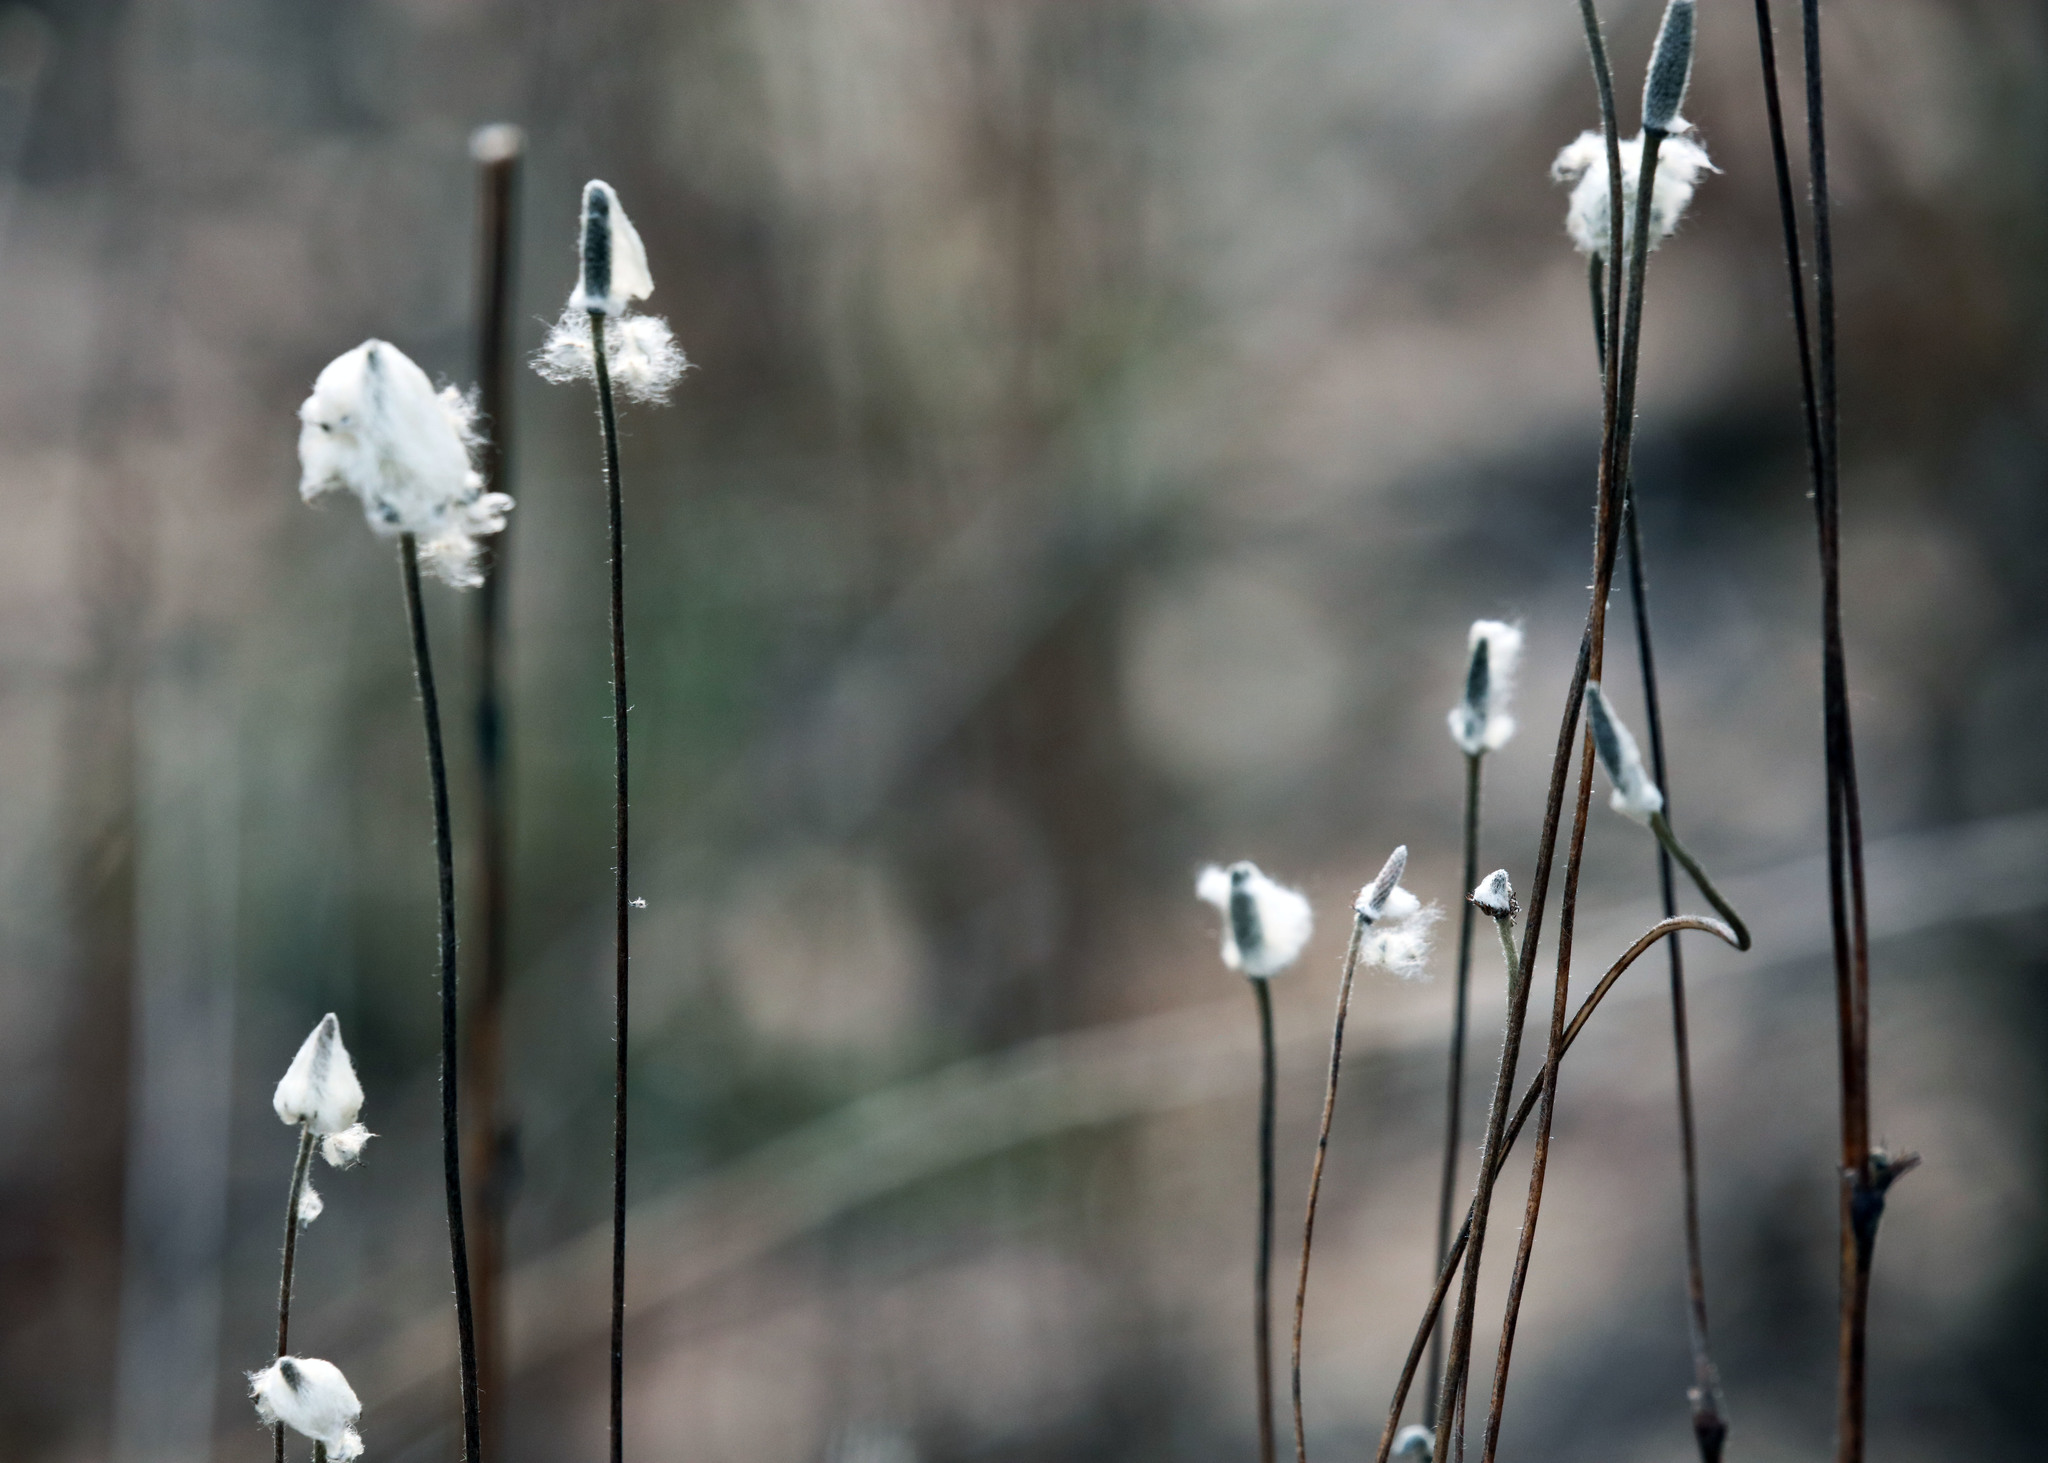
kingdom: Plantae
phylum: Tracheophyta
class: Magnoliopsida
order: Ranunculales
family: Ranunculaceae
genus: Anemone
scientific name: Anemone virginiana
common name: Tall anemone
